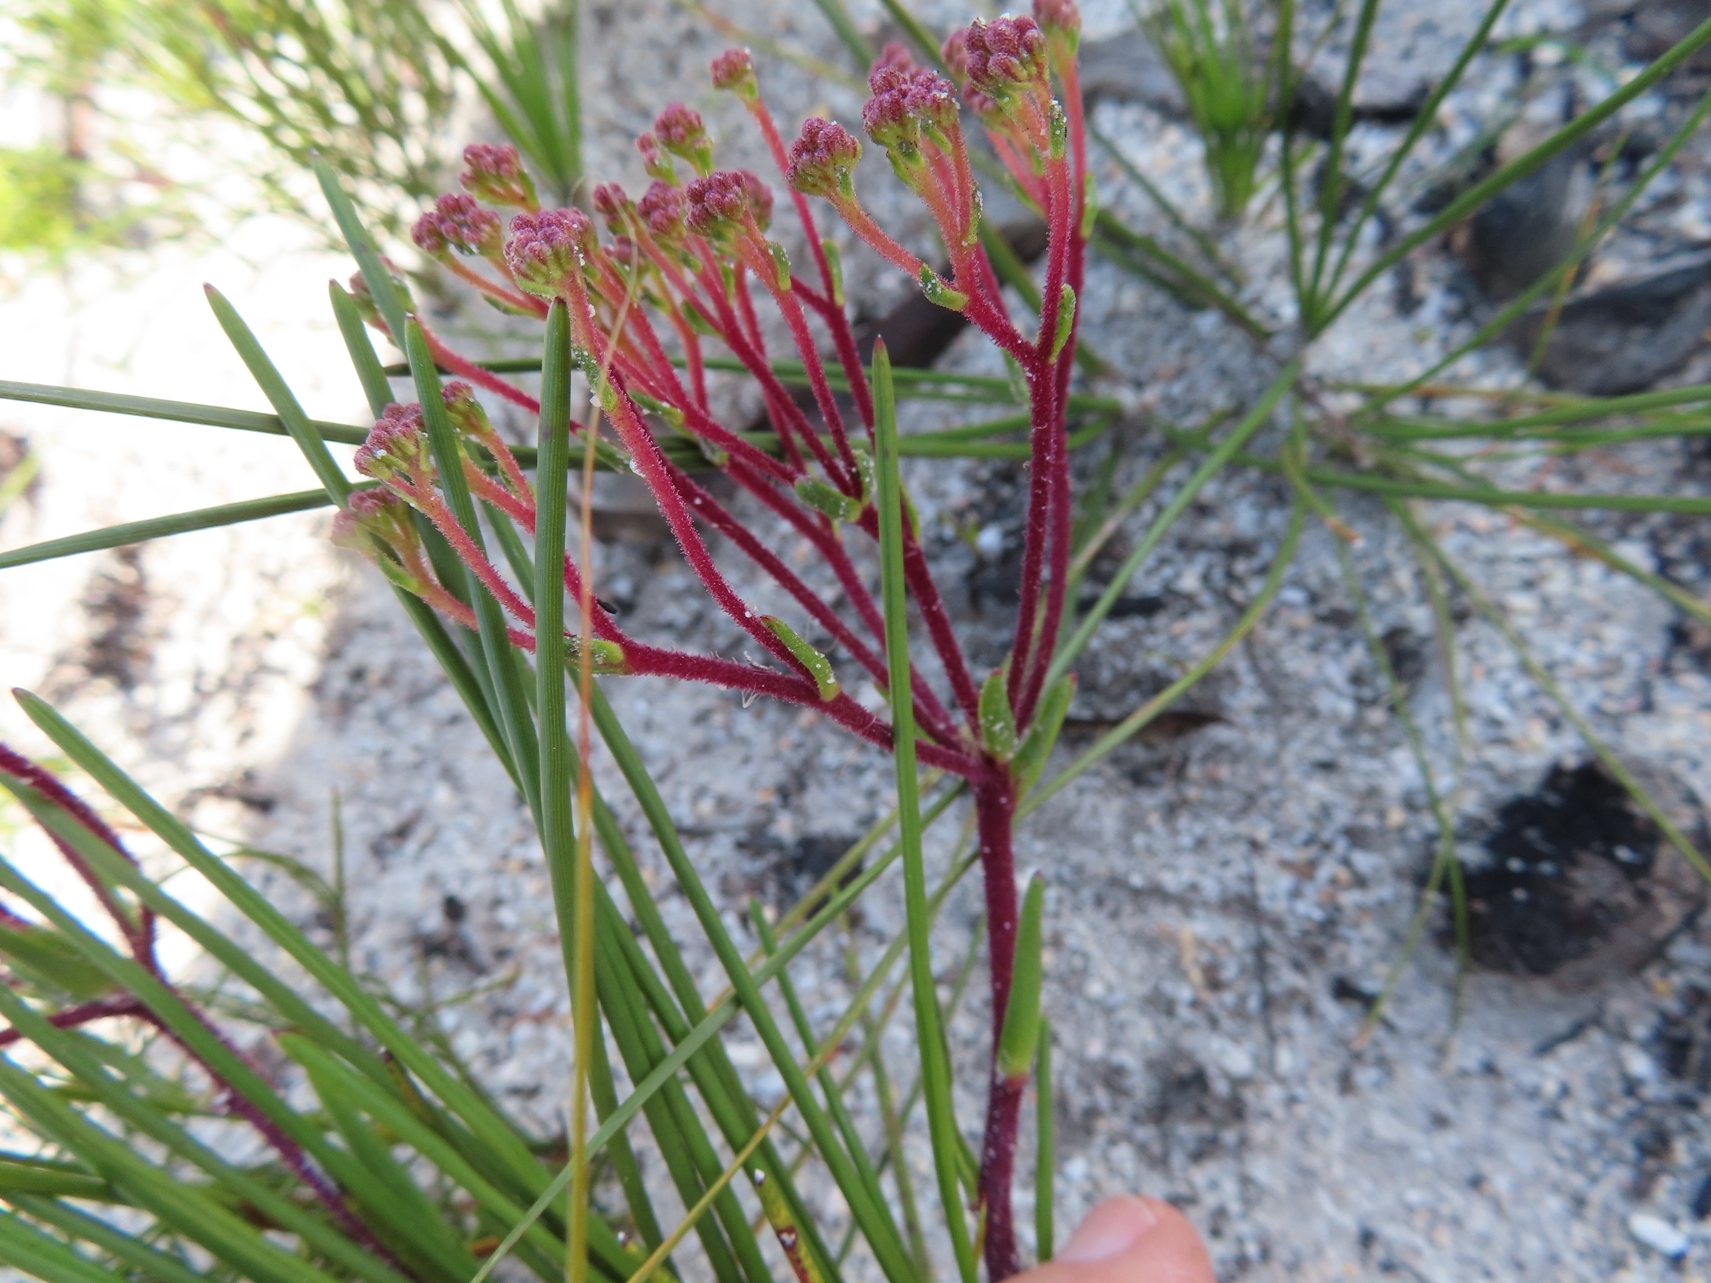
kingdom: Plantae
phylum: Tracheophyta
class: Magnoliopsida
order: Asterales
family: Asteraceae
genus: Corymbium
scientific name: Corymbium africanum
